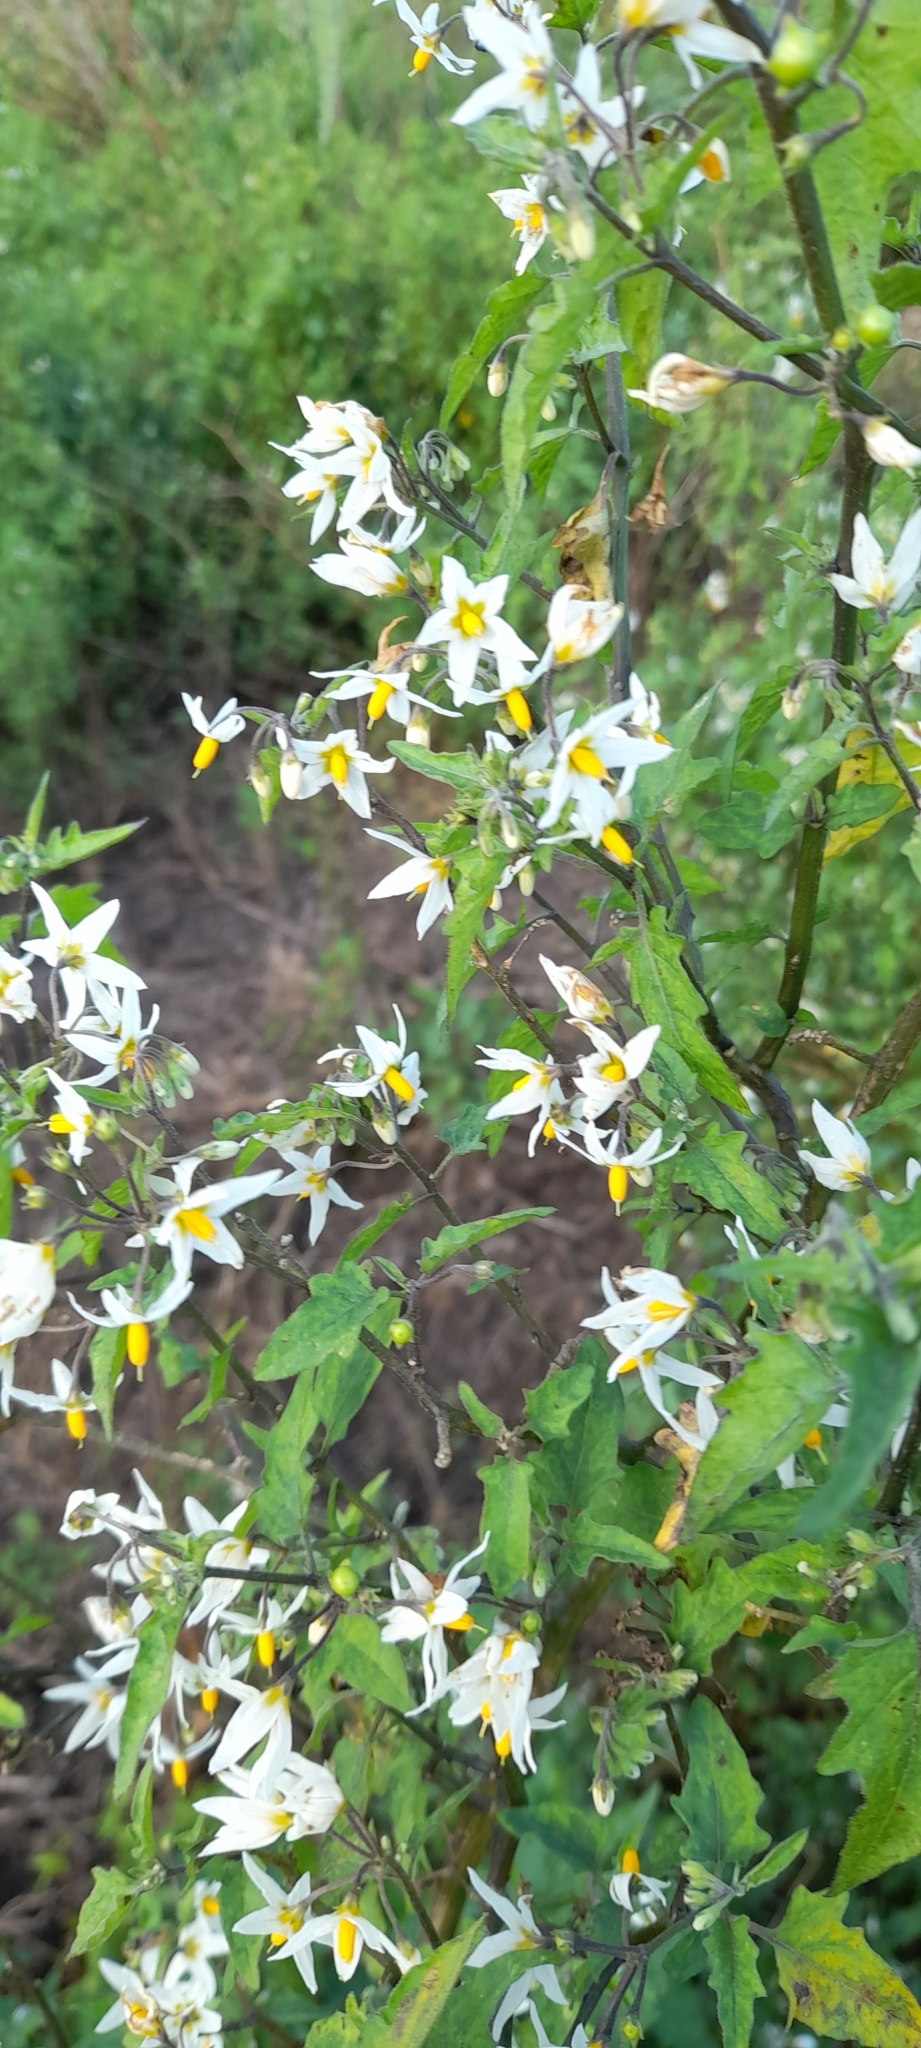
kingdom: Plantae
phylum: Tracheophyta
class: Magnoliopsida
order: Solanales
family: Solanaceae
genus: Solanum
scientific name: Solanum pilcomayense
